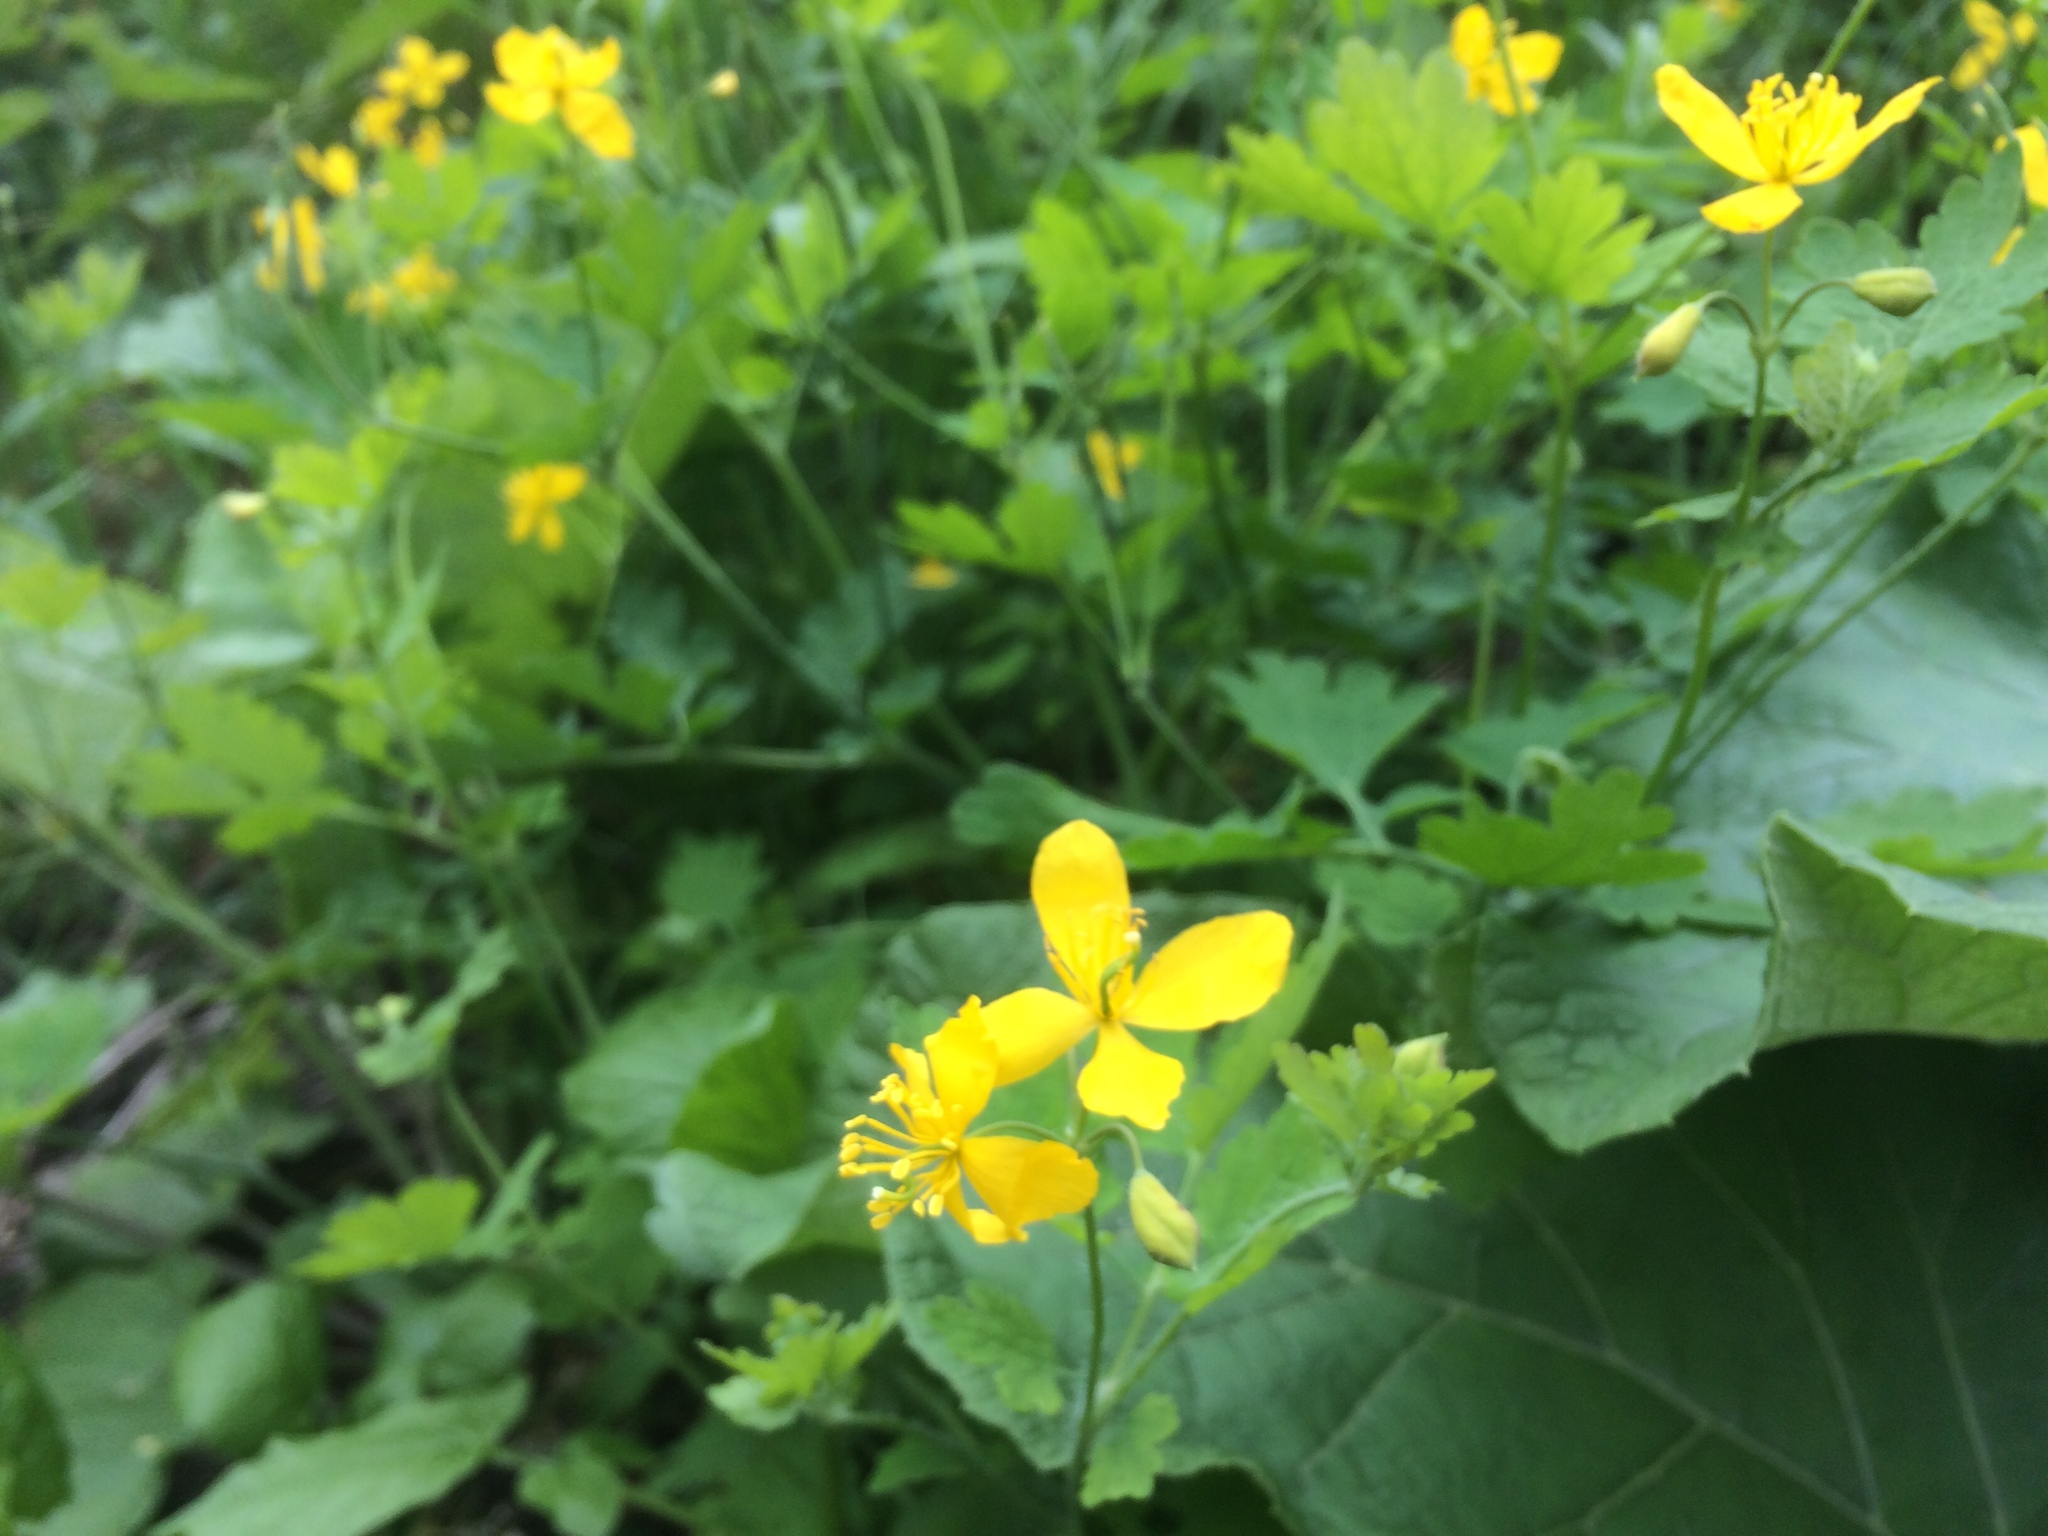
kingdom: Plantae
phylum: Tracheophyta
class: Magnoliopsida
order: Ranunculales
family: Papaveraceae
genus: Chelidonium
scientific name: Chelidonium majus
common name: Greater celandine
